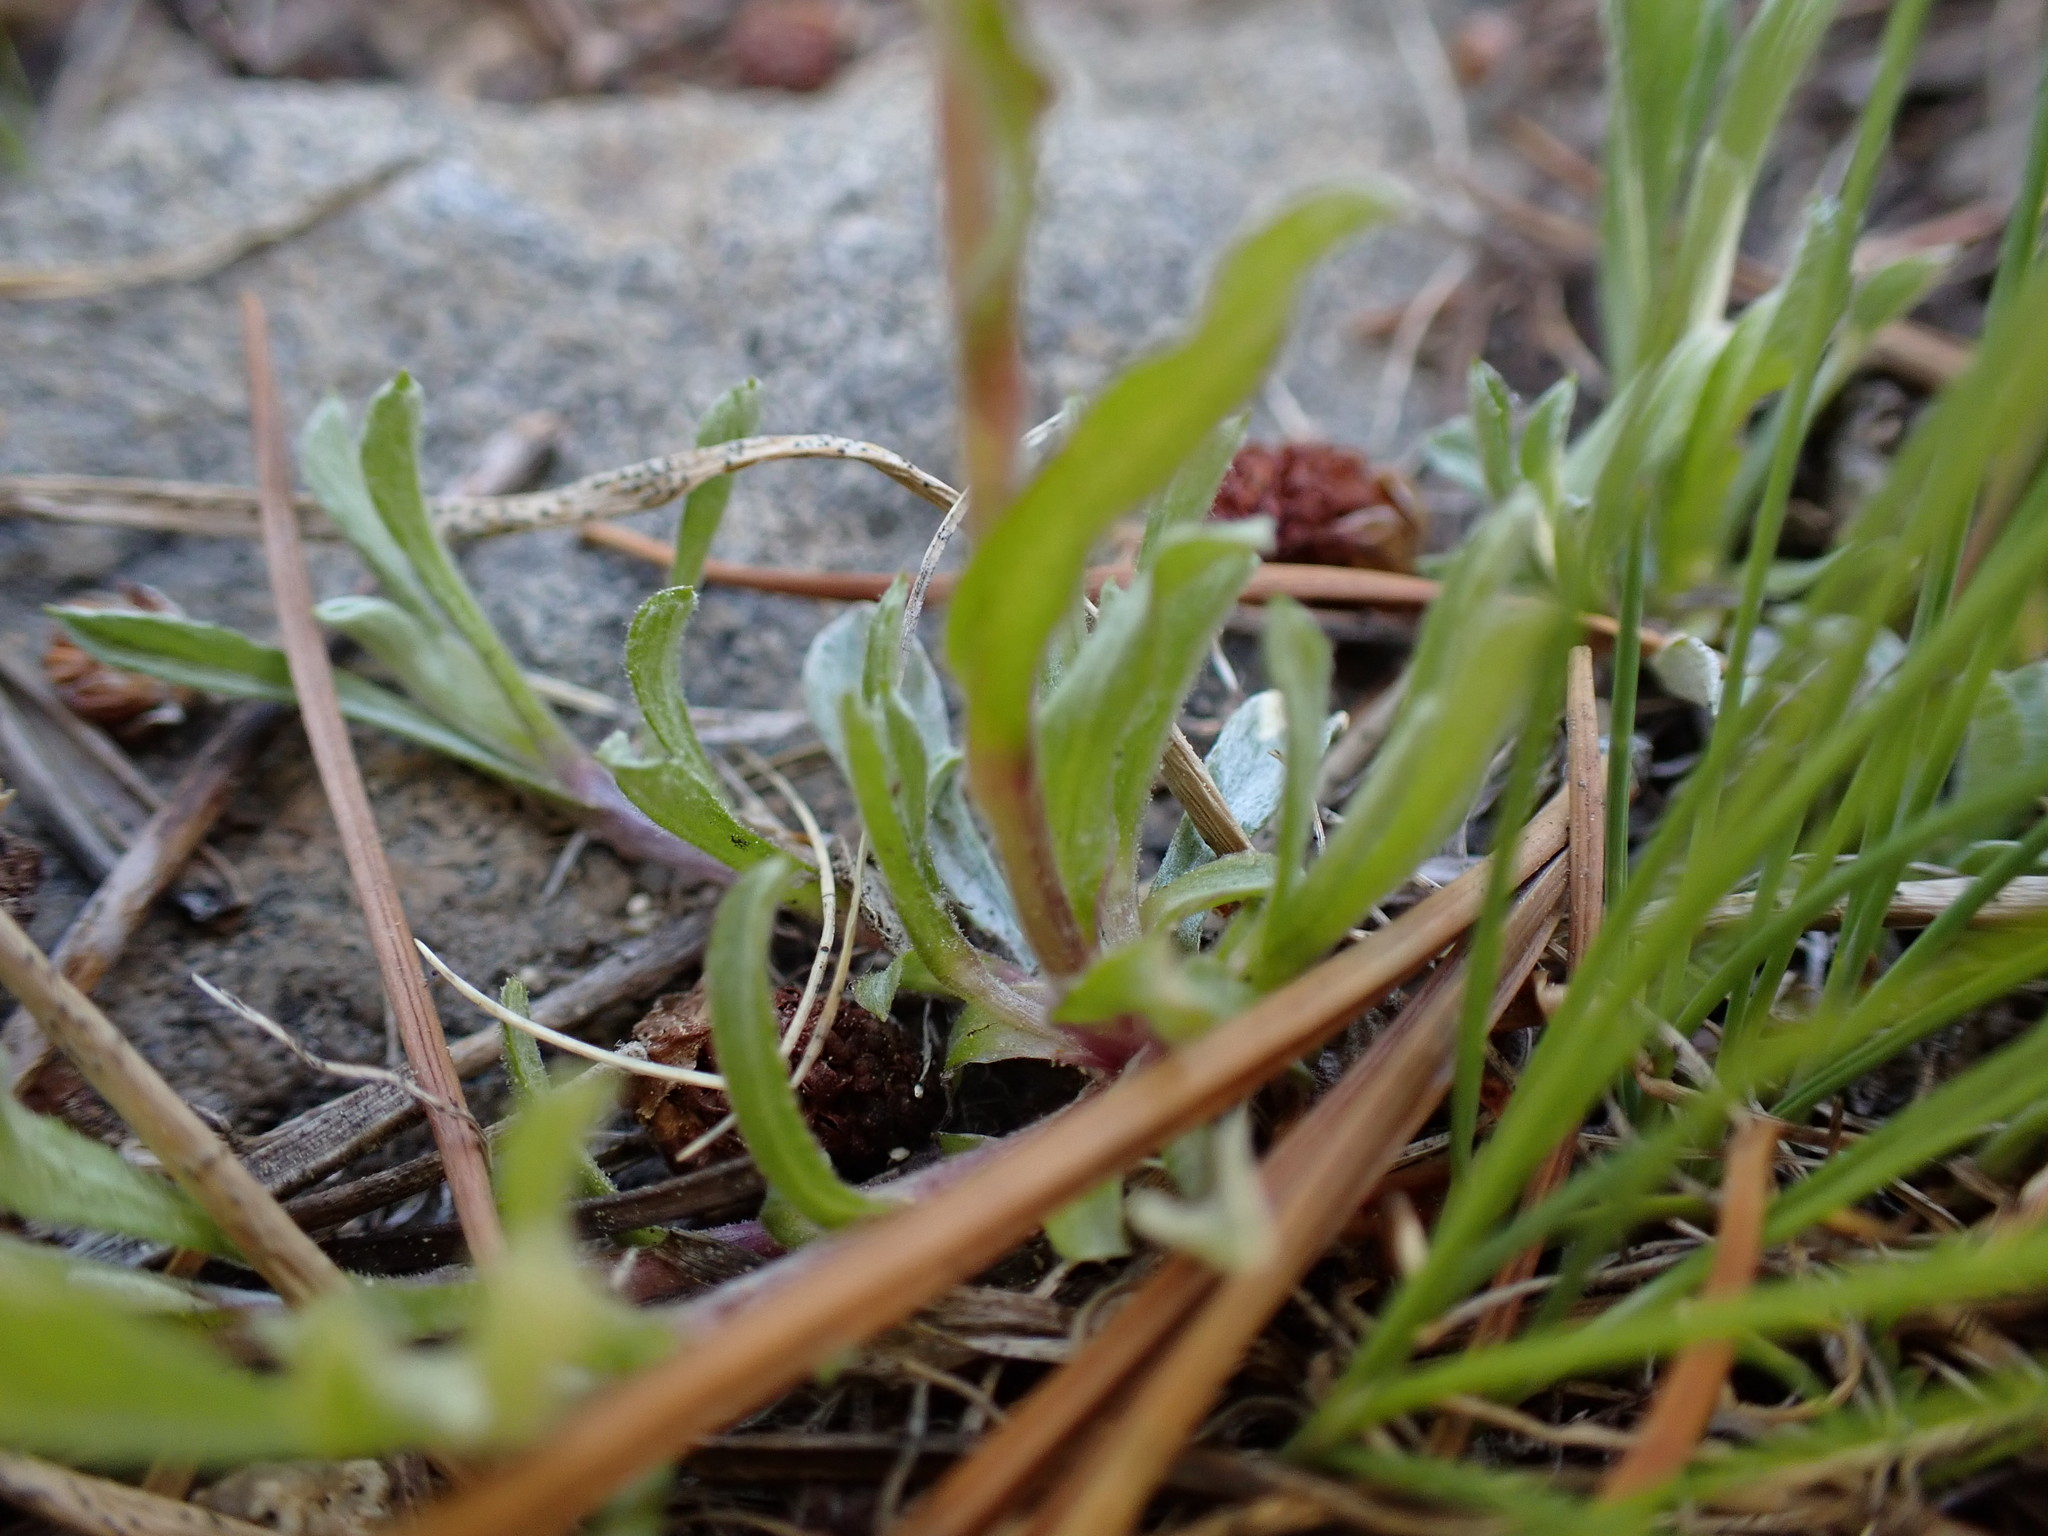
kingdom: Plantae
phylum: Tracheophyta
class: Magnoliopsida
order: Asterales
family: Asteraceae
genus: Antennaria
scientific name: Antennaria pulchella
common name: Sierra pussytoes
